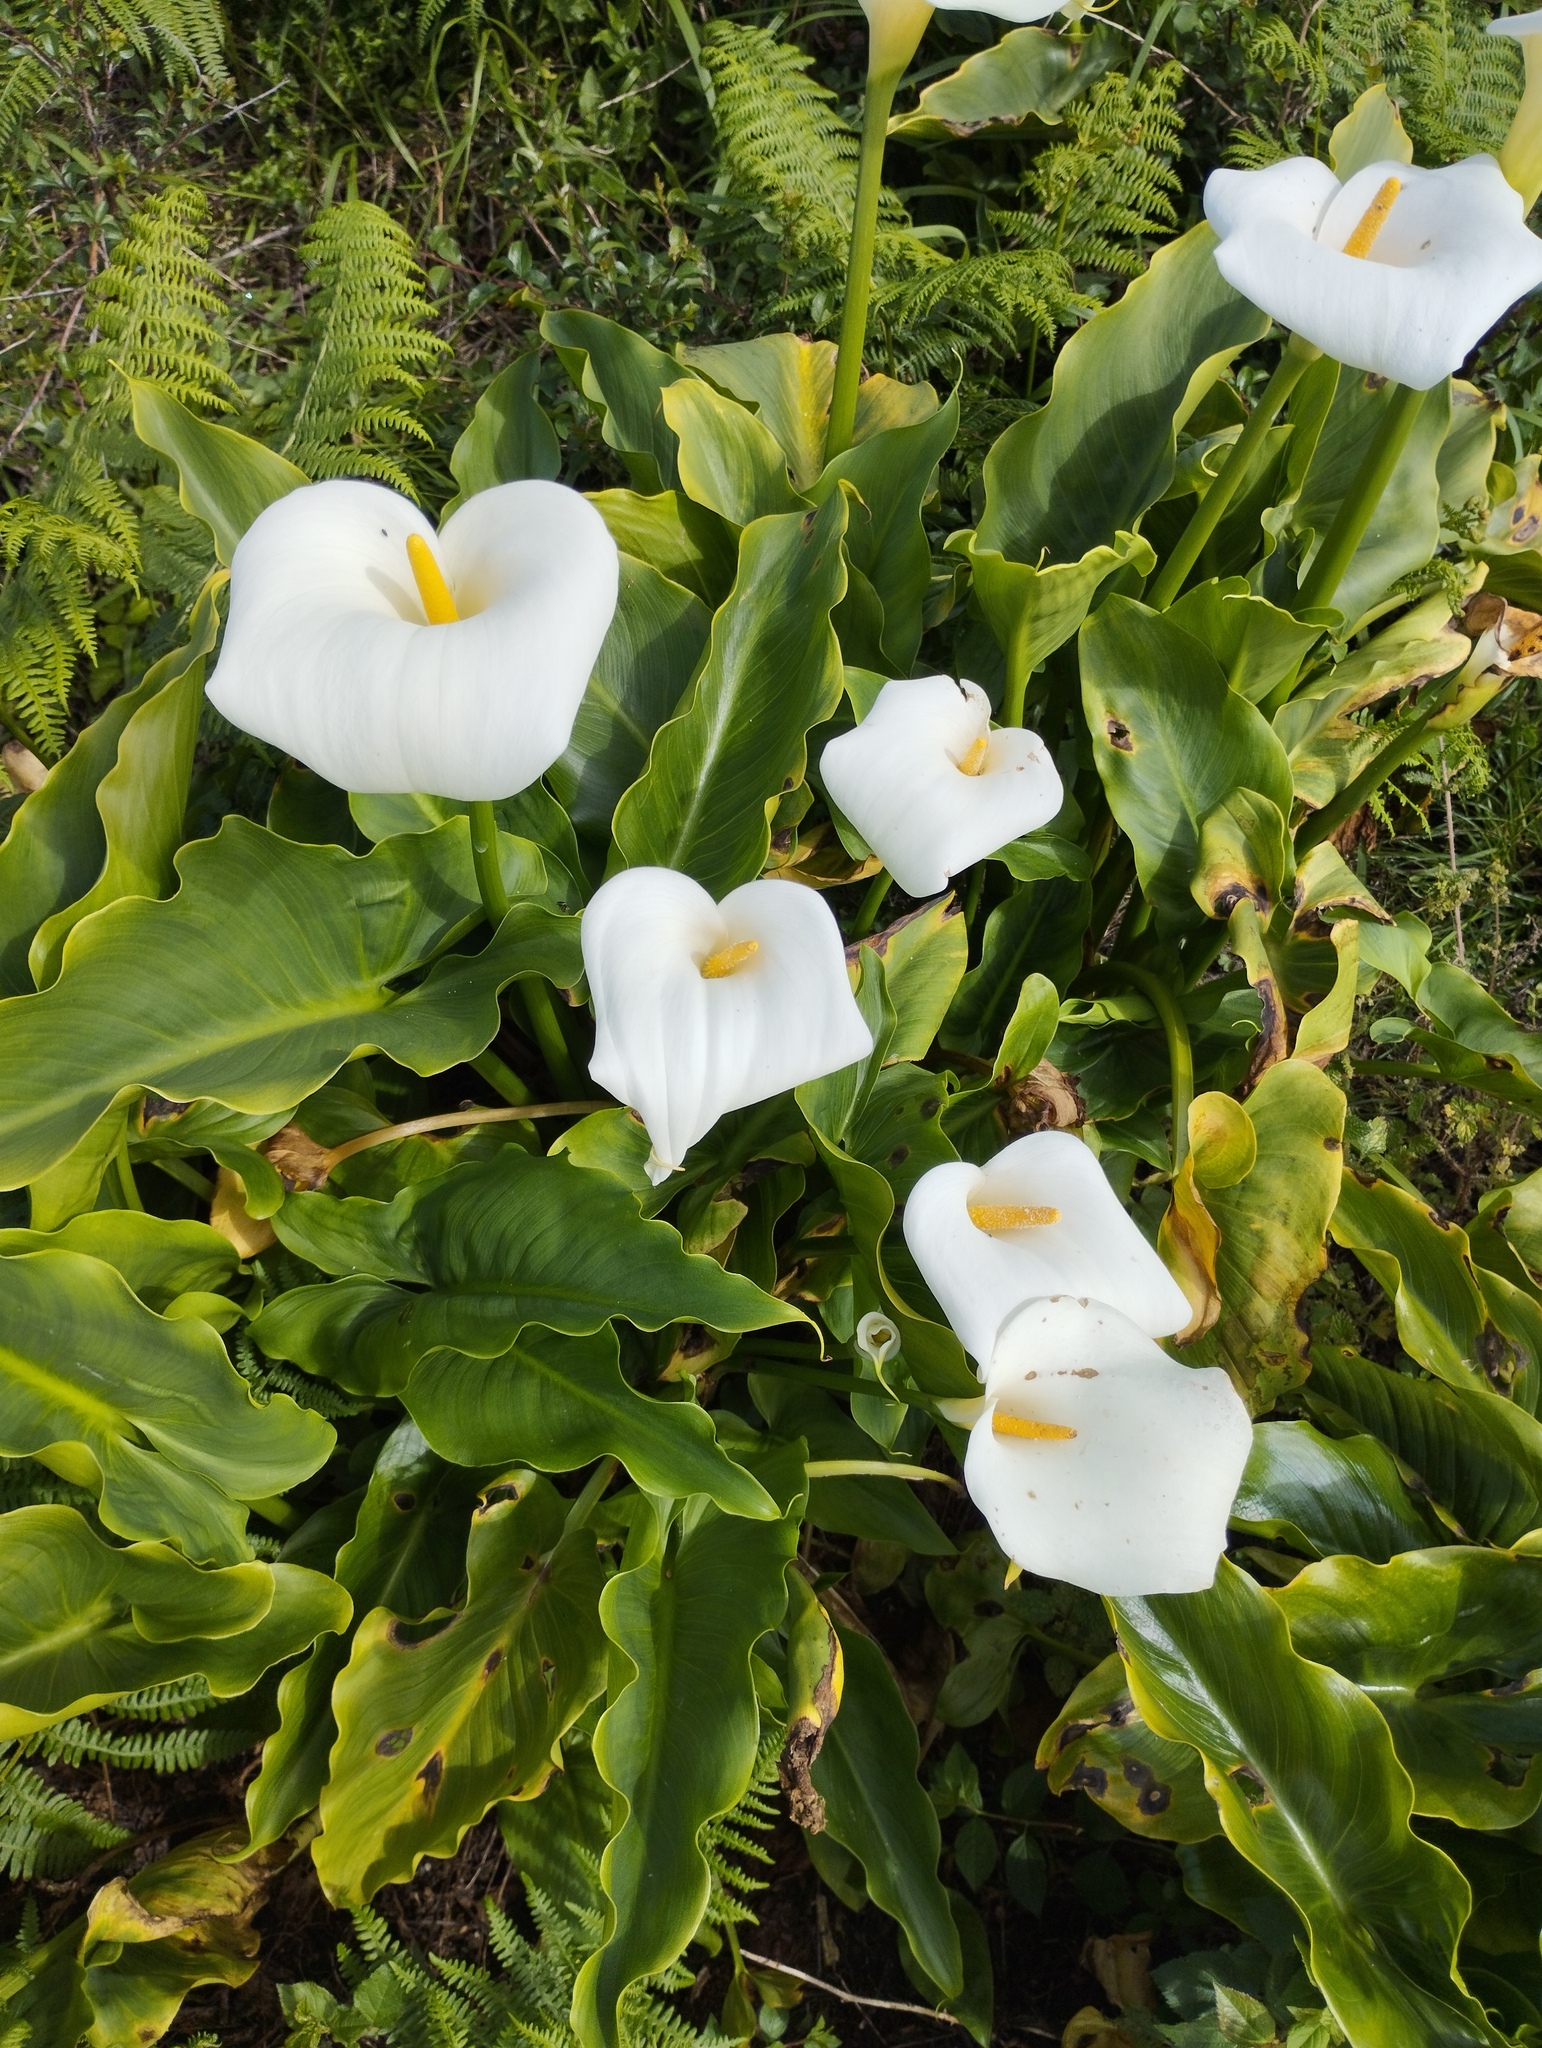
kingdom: Plantae
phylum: Tracheophyta
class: Liliopsida
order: Alismatales
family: Araceae
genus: Zantedeschia
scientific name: Zantedeschia aethiopica
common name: Altar-lily
